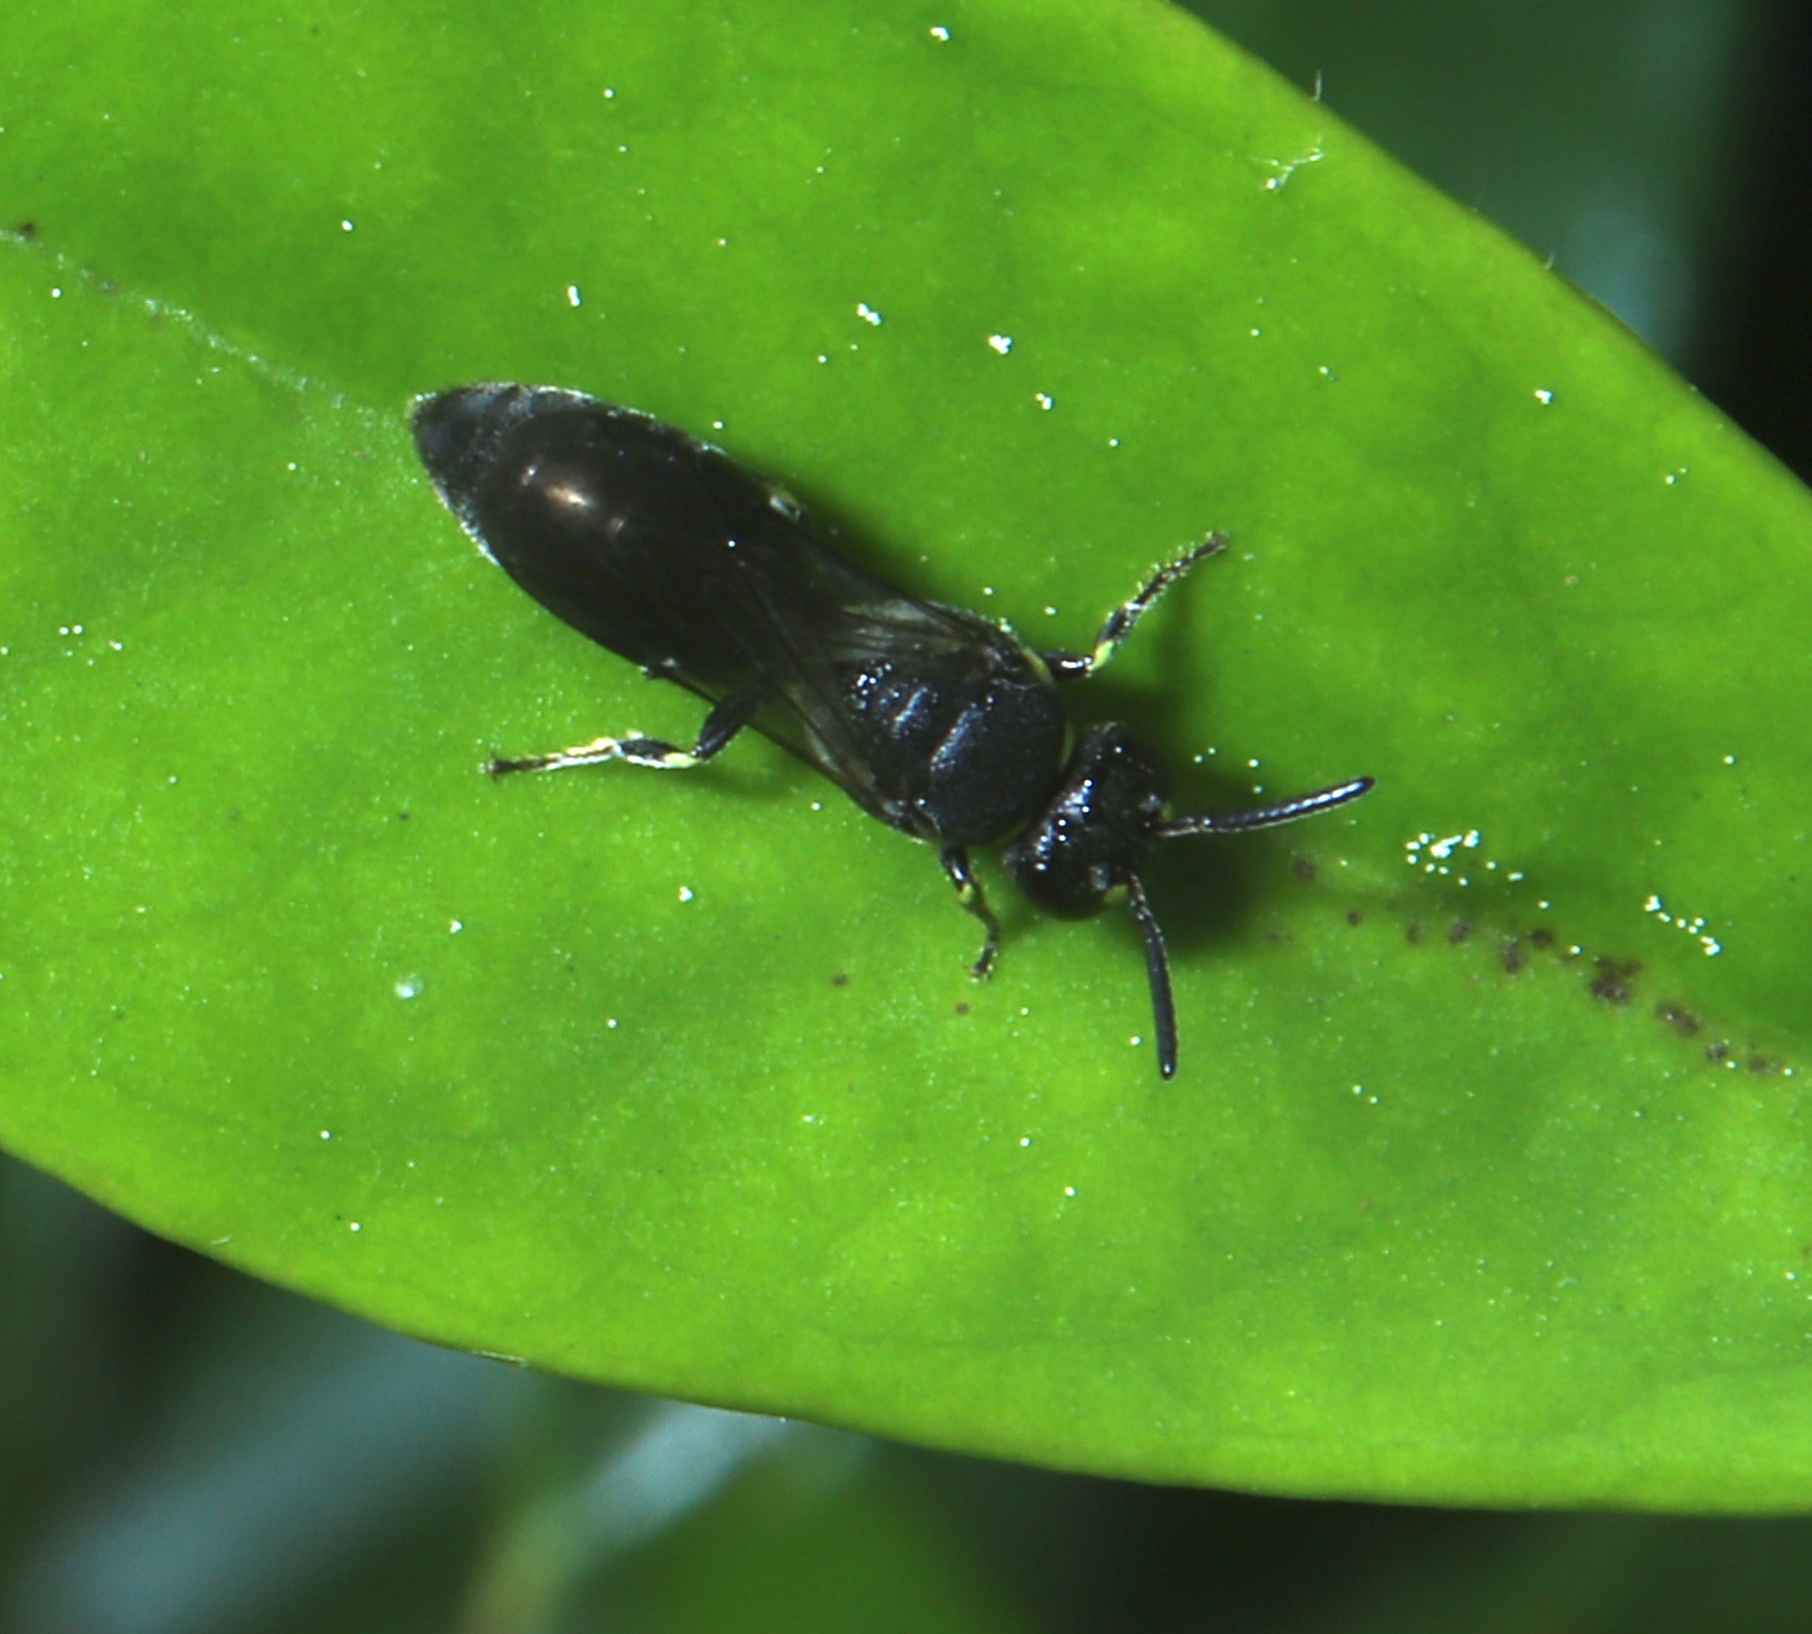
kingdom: Animalia
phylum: Arthropoda
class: Insecta
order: Hymenoptera
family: Colletidae
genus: Hylaeus
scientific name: Hylaeus
